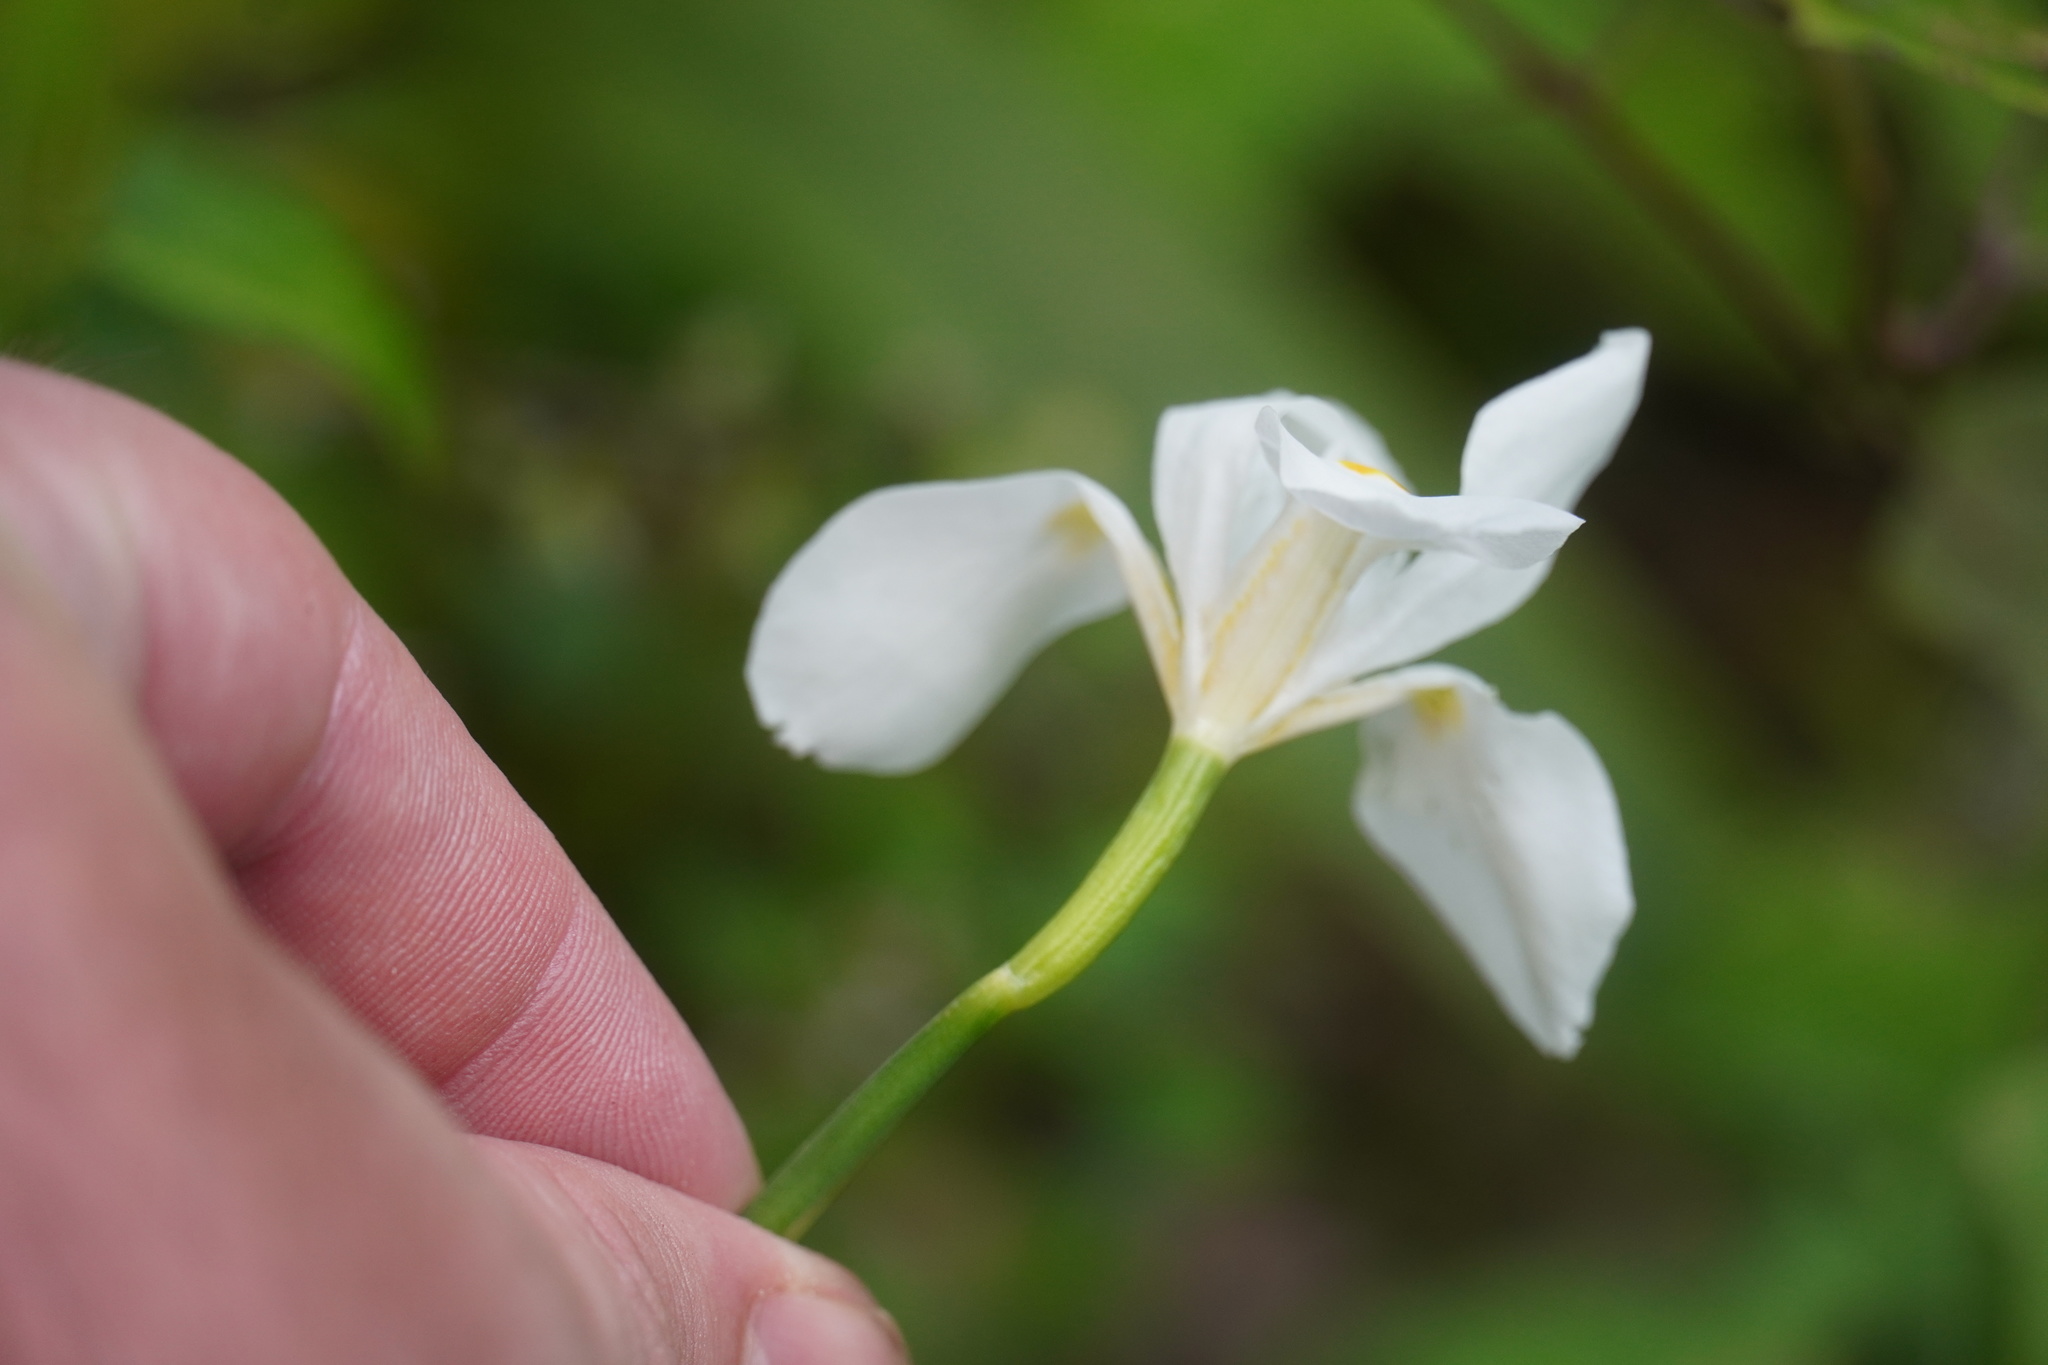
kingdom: Plantae
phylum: Tracheophyta
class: Liliopsida
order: Asparagales
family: Iridaceae
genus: Dietes
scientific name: Dietes iridioides
